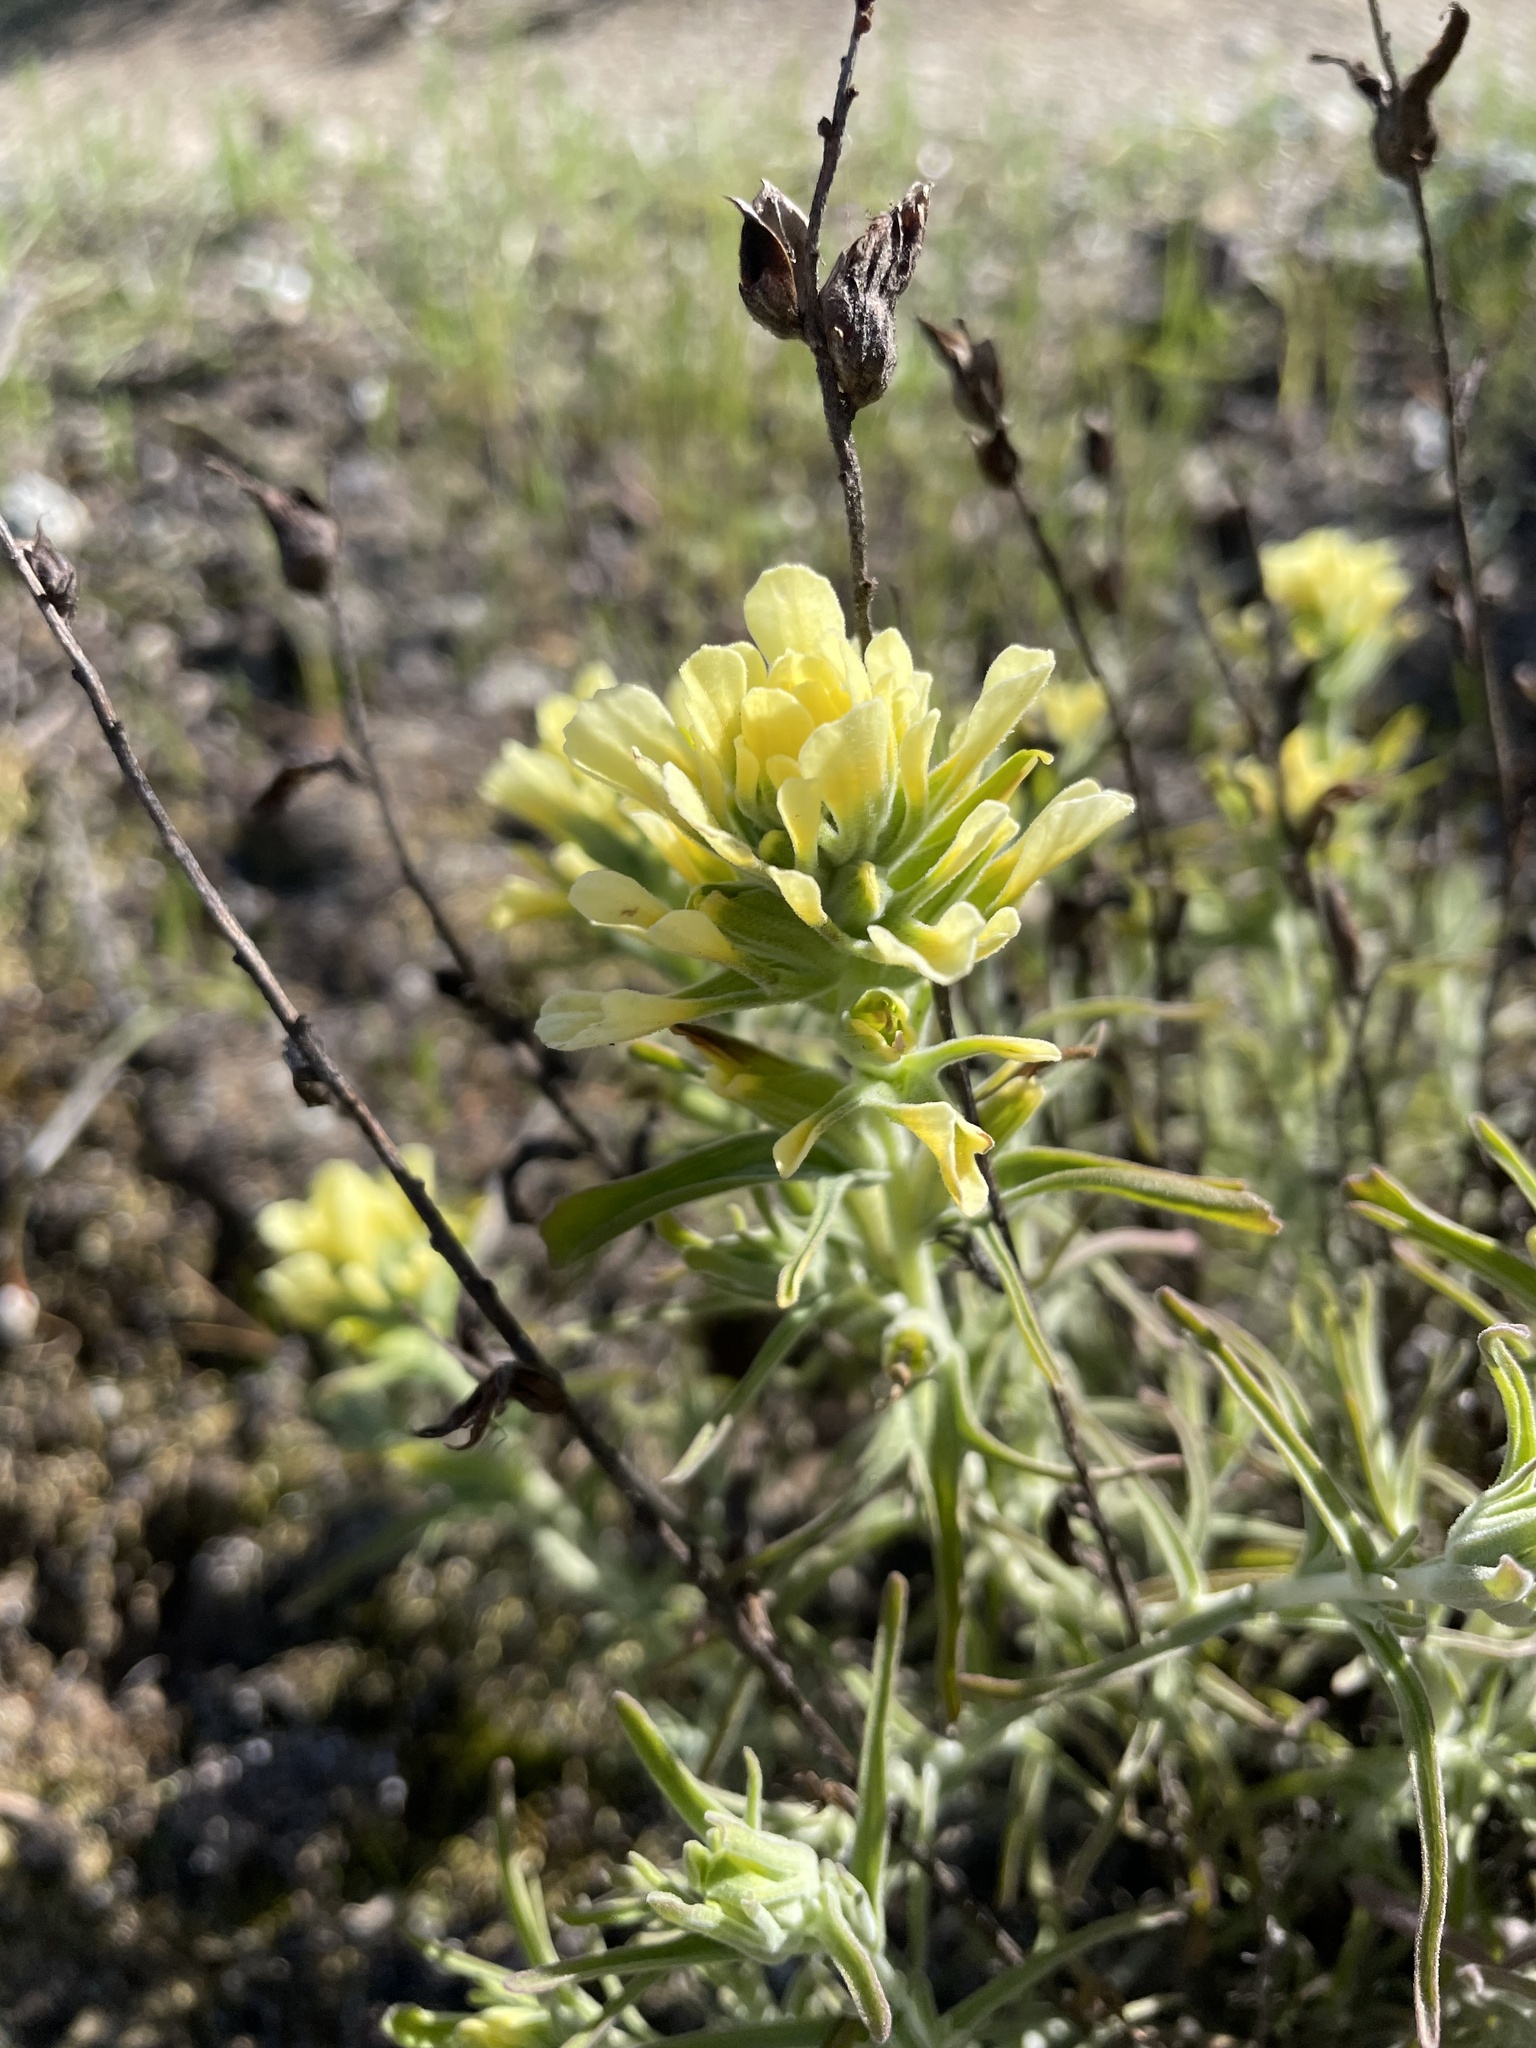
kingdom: Plantae
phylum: Tracheophyta
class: Magnoliopsida
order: Lamiales
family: Orobanchaceae
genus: Castilleja
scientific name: Castilleja foliolosa
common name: Woolly indian paintbrush
